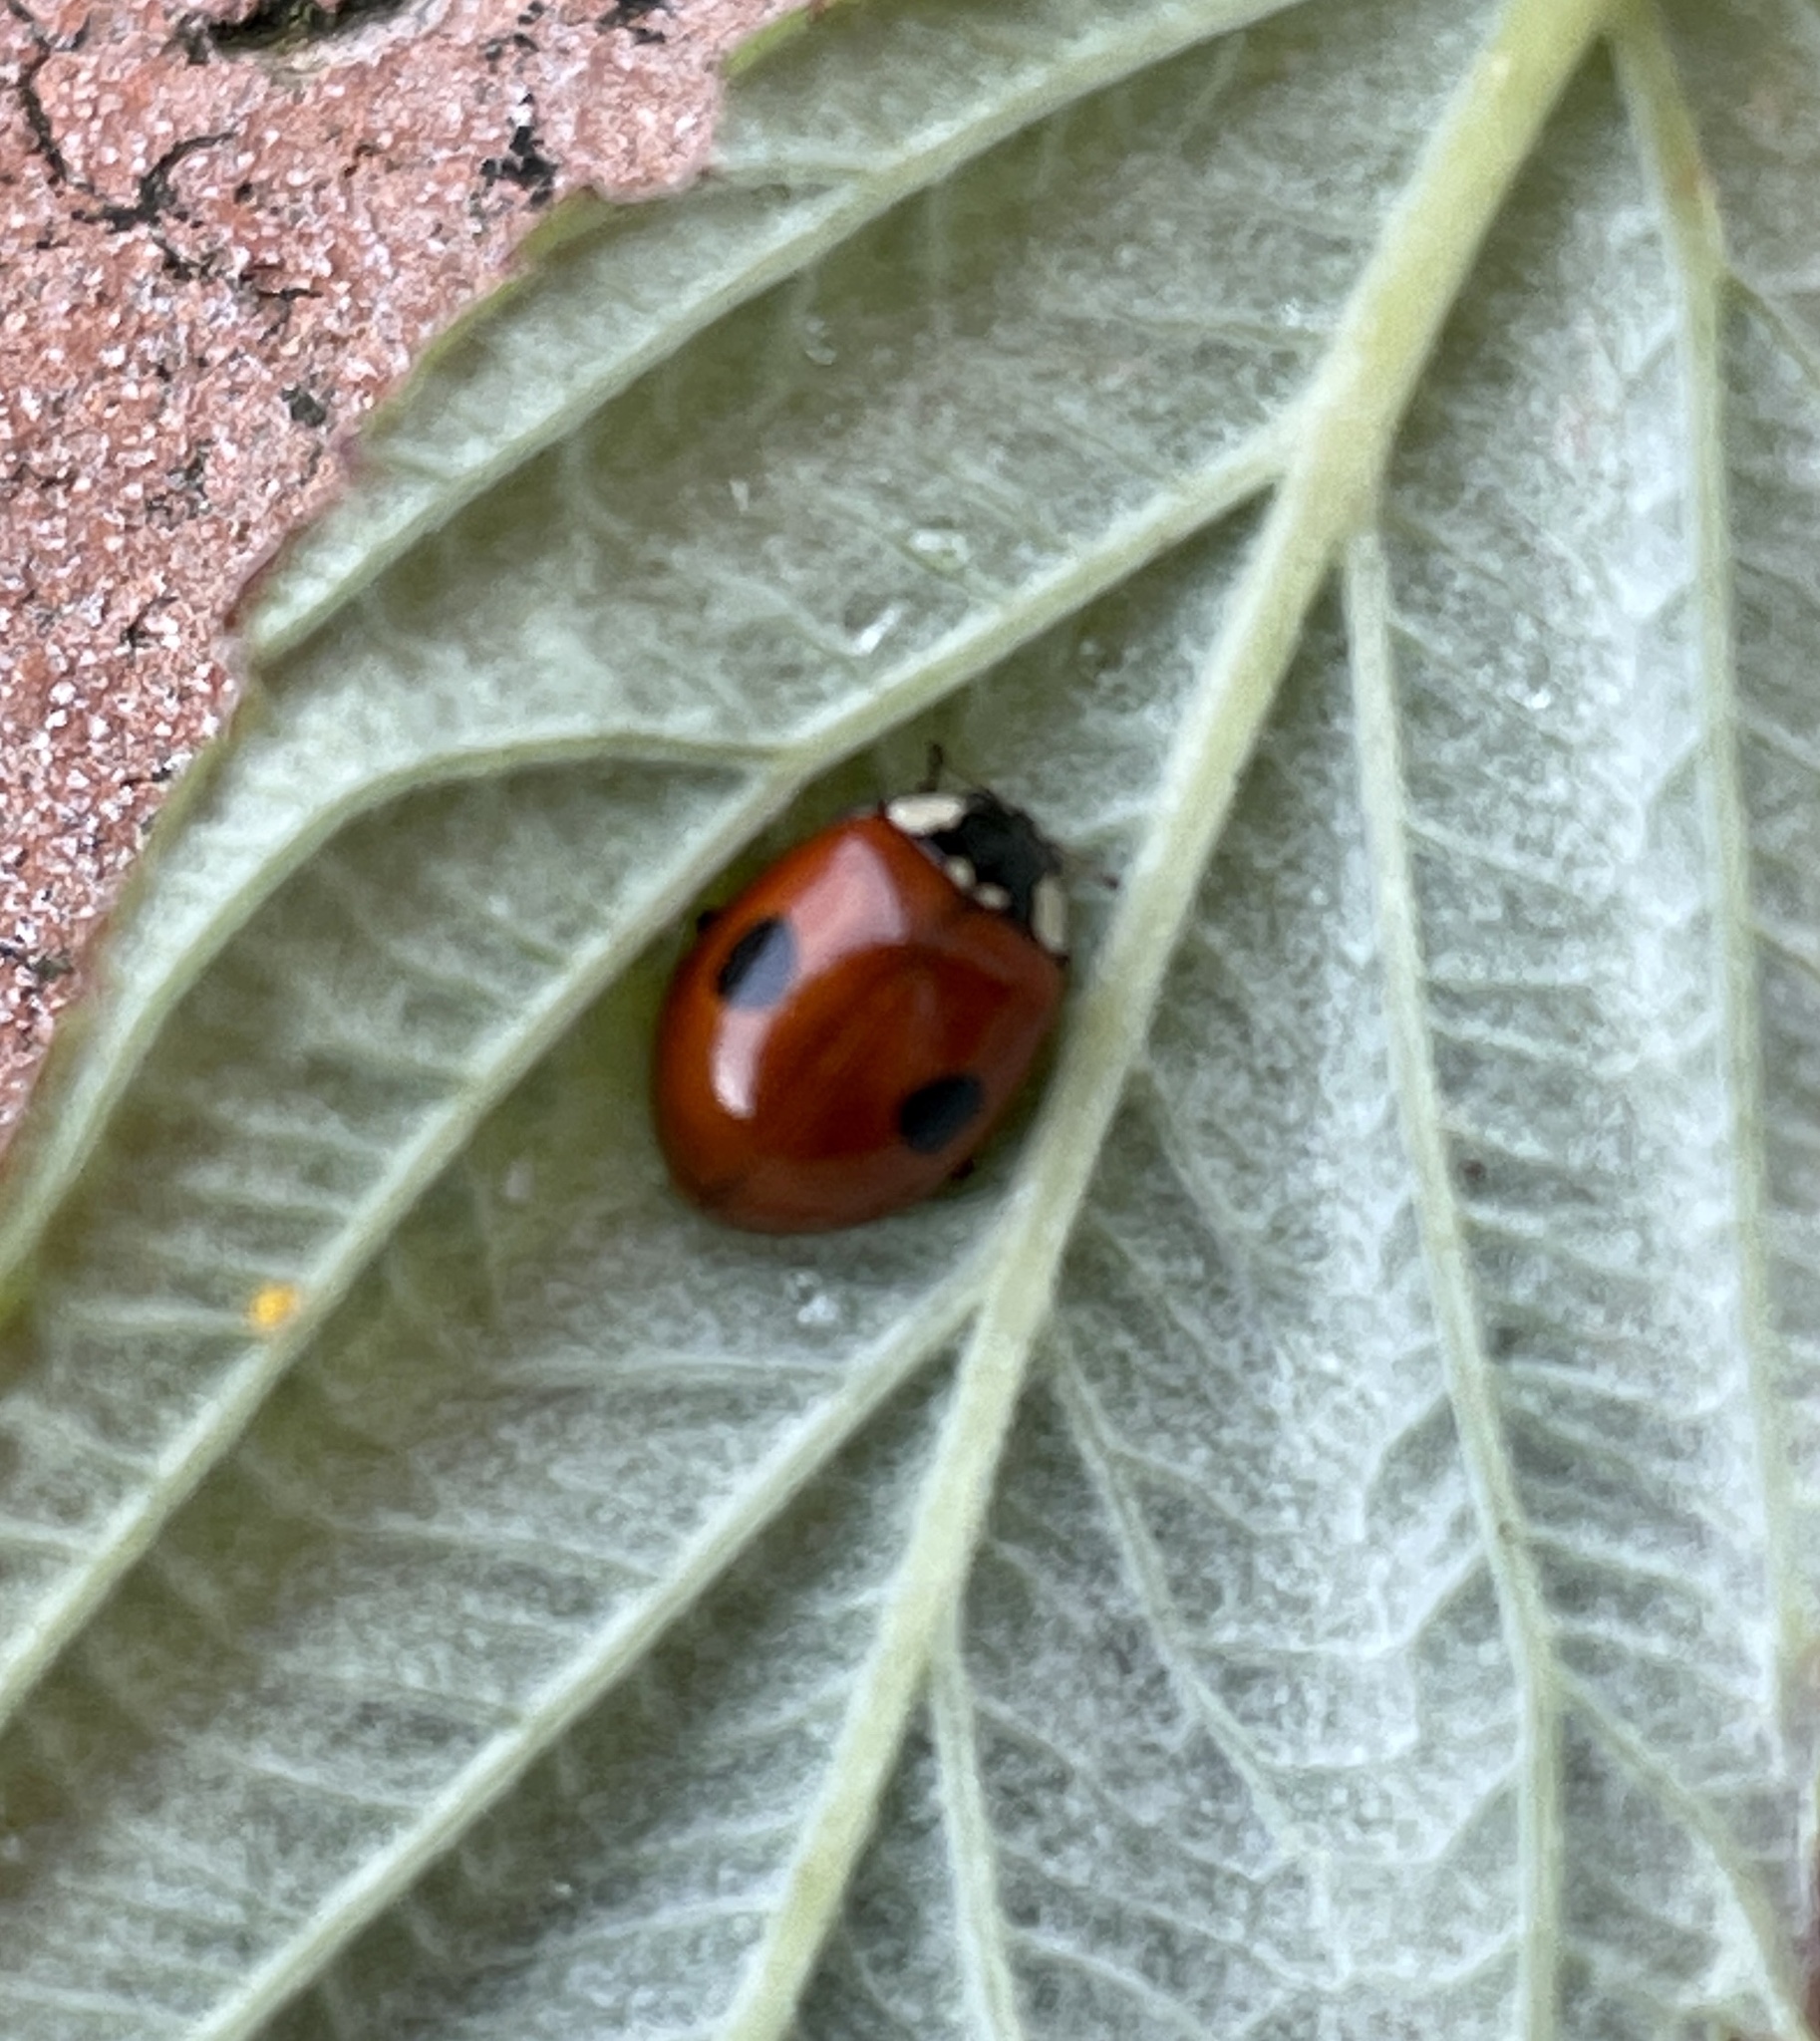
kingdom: Animalia
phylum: Arthropoda
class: Insecta
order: Coleoptera
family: Coccinellidae
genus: Adalia
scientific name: Adalia bipunctata
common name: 2-spot ladybird
